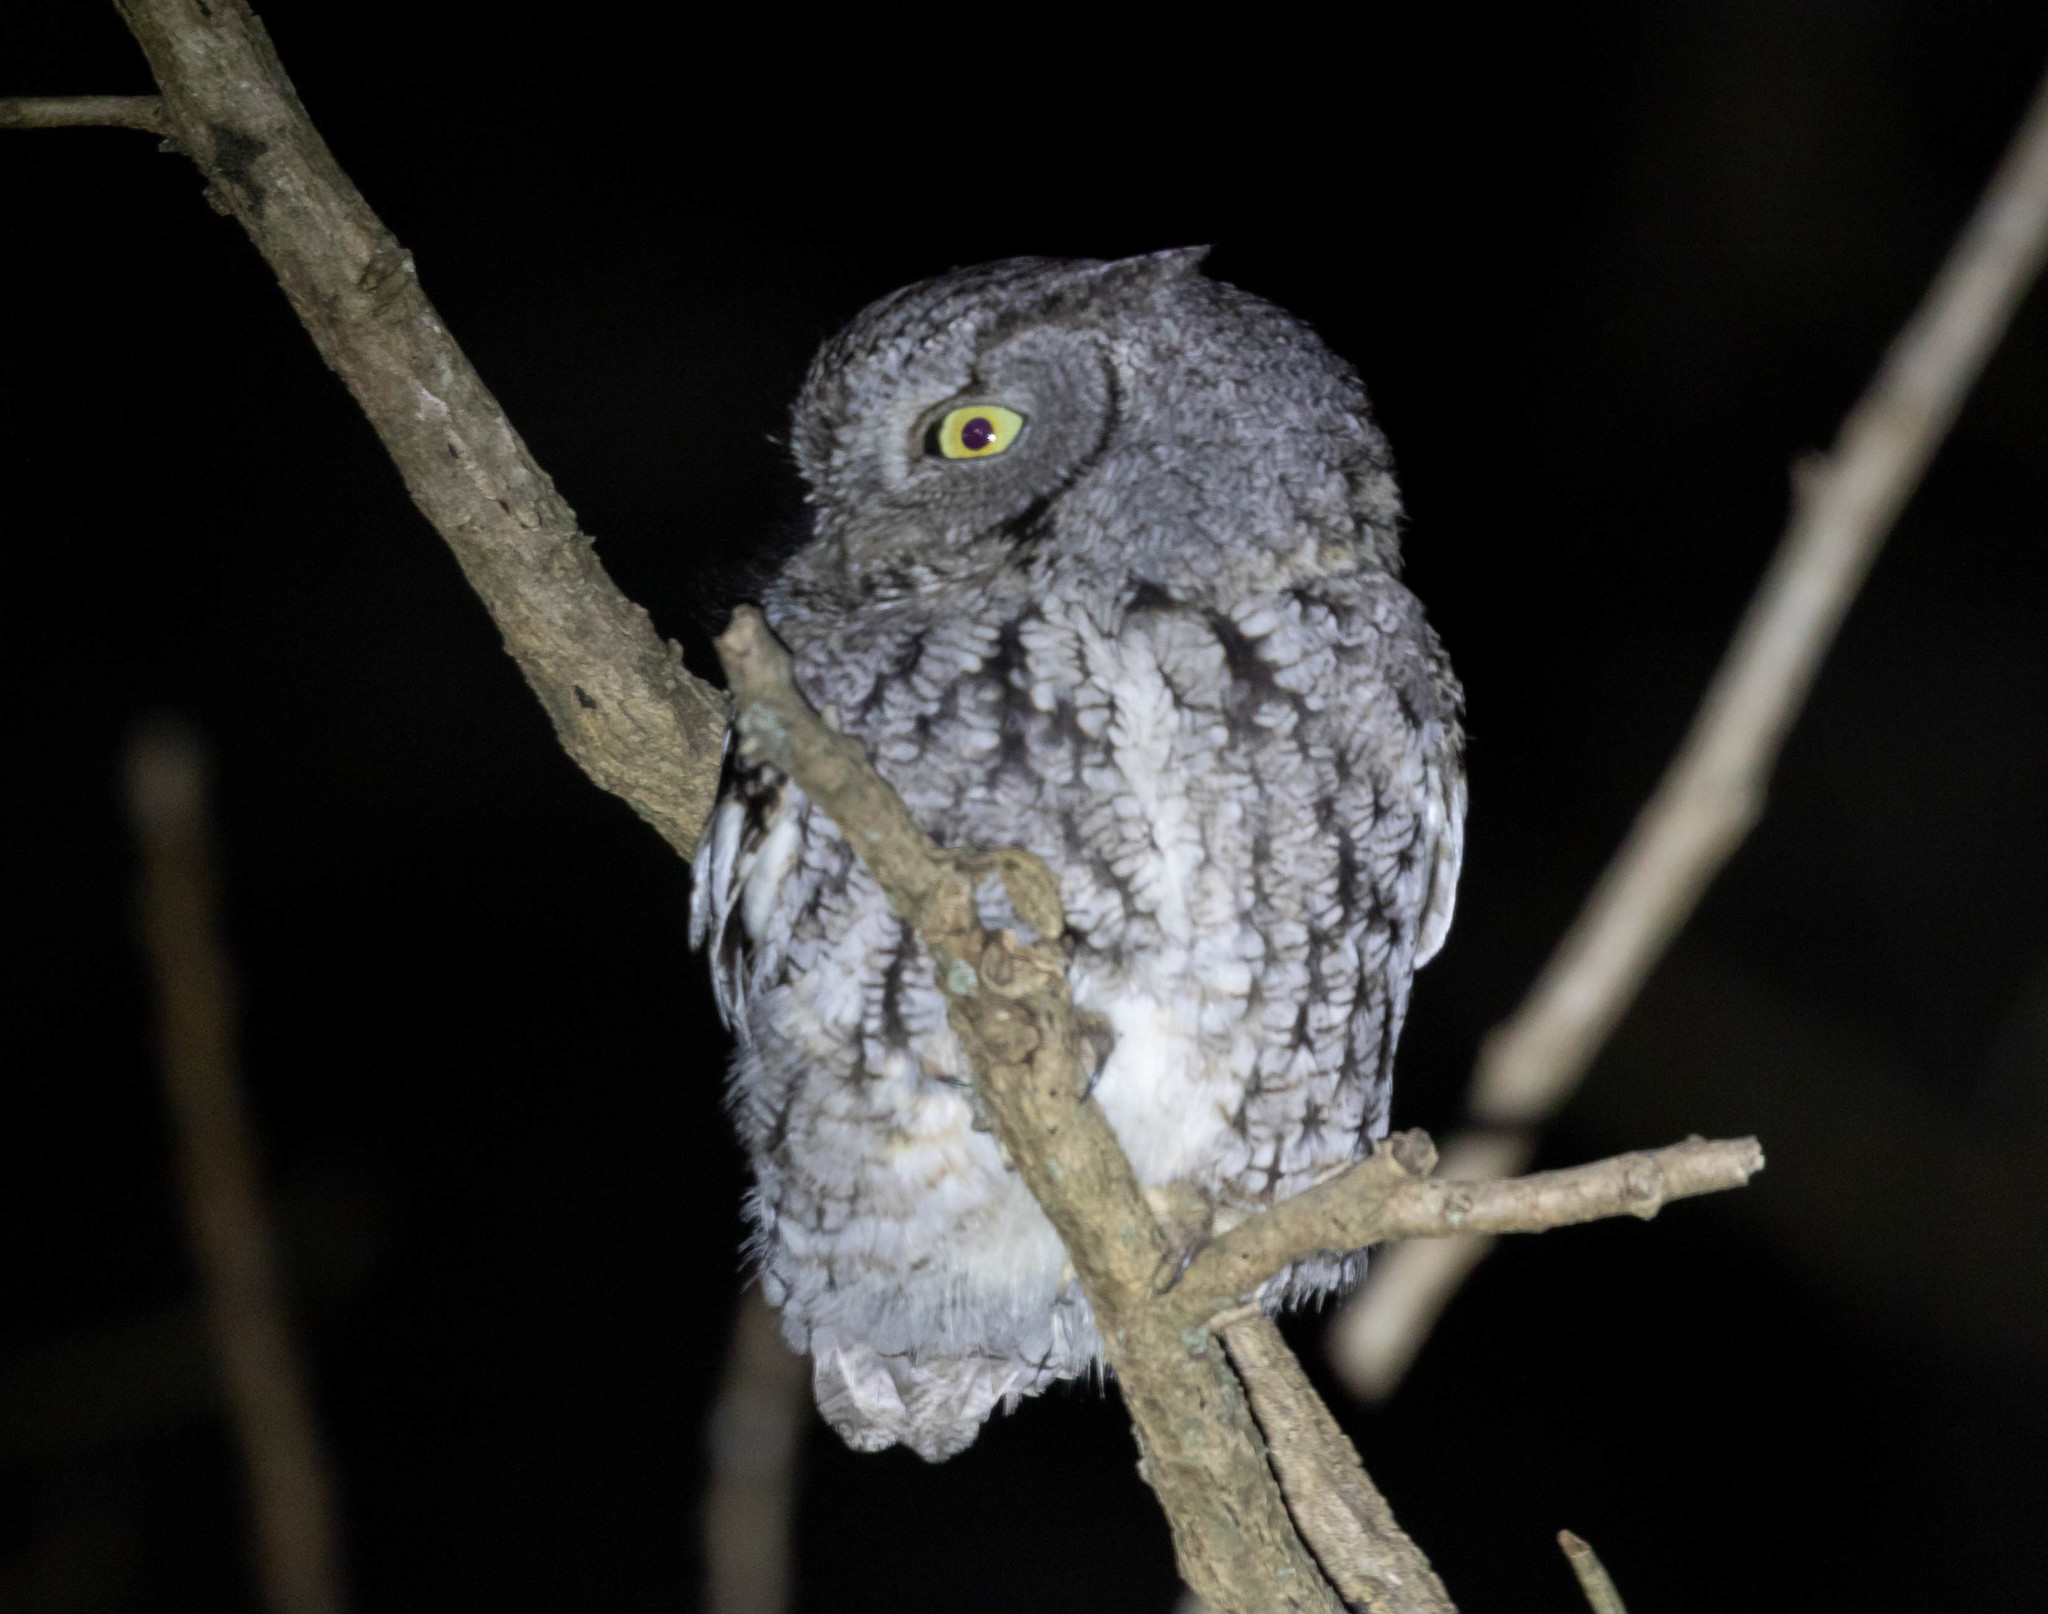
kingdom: Animalia
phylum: Chordata
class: Aves
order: Strigiformes
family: Strigidae
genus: Megascops
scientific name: Megascops asio
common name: Eastern screech-owl
